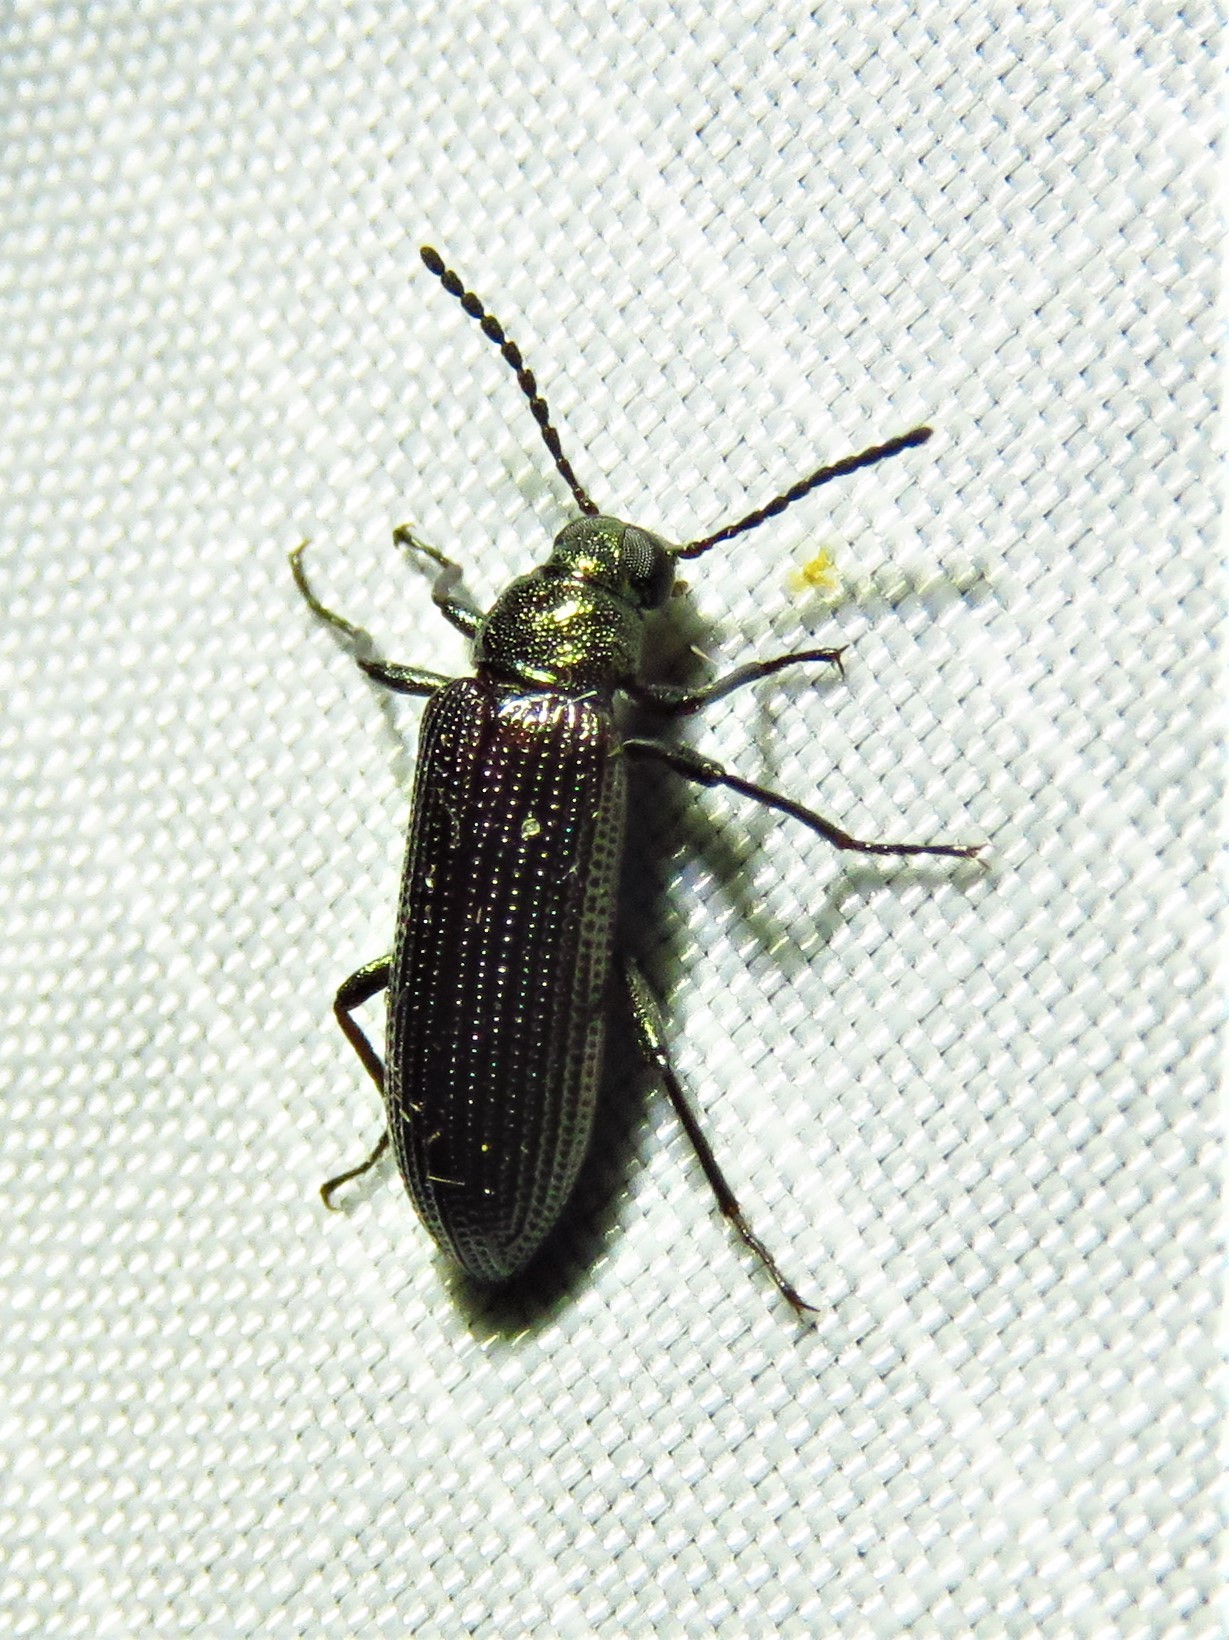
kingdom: Animalia
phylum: Arthropoda
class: Insecta
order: Coleoptera
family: Tenebrionidae
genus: Strongylium
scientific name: Strongylium
